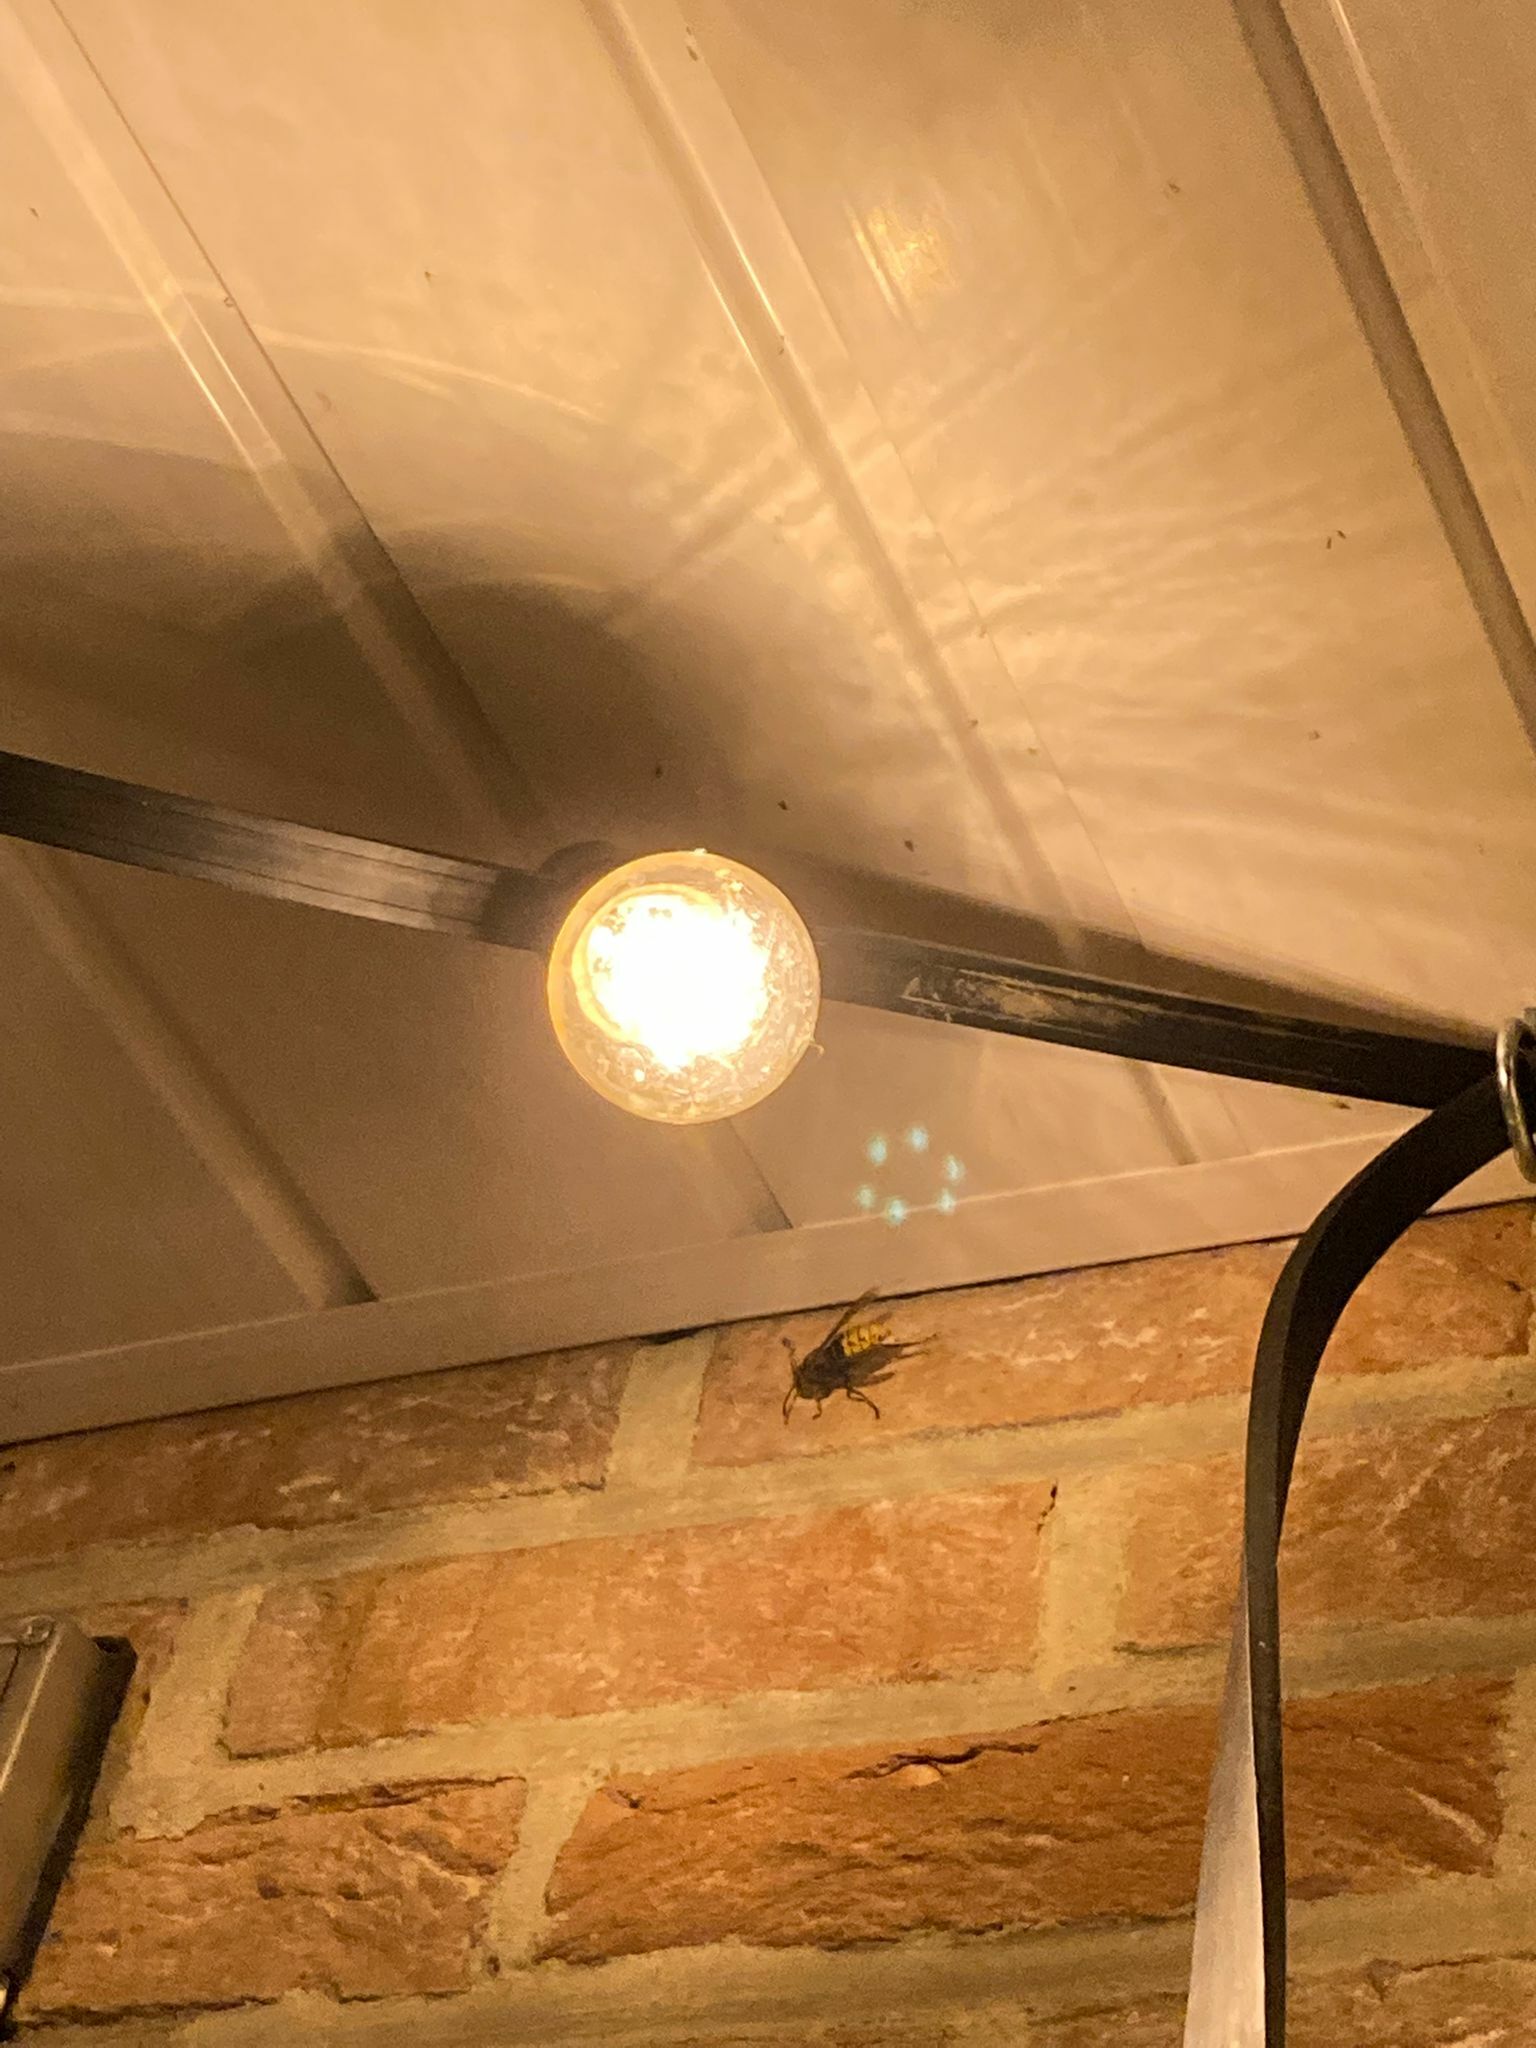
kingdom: Animalia
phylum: Arthropoda
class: Insecta
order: Hymenoptera
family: Vespidae
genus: Vespa
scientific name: Vespa crabro
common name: Hornet
